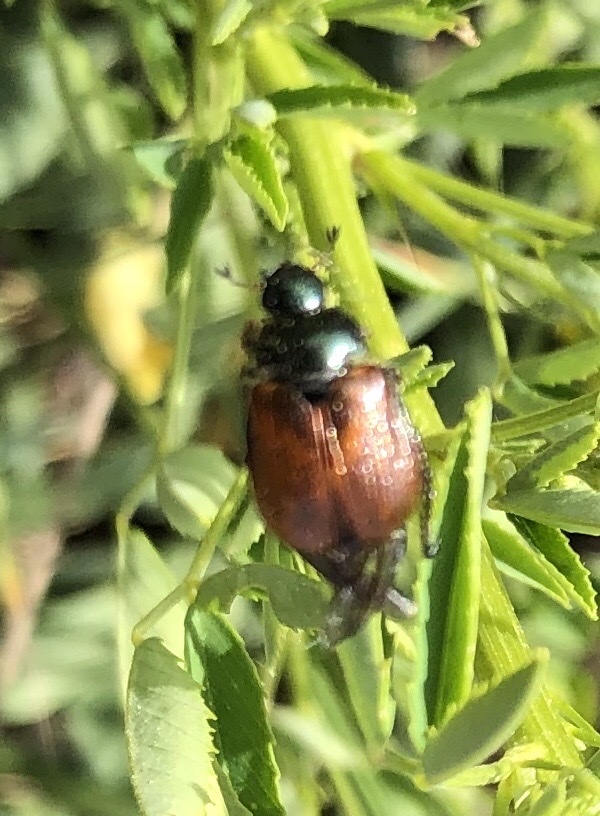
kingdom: Animalia
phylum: Arthropoda
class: Insecta
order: Coleoptera
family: Scarabaeidae
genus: Phyllopertha
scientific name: Phyllopertha horticola
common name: Garden chafer
